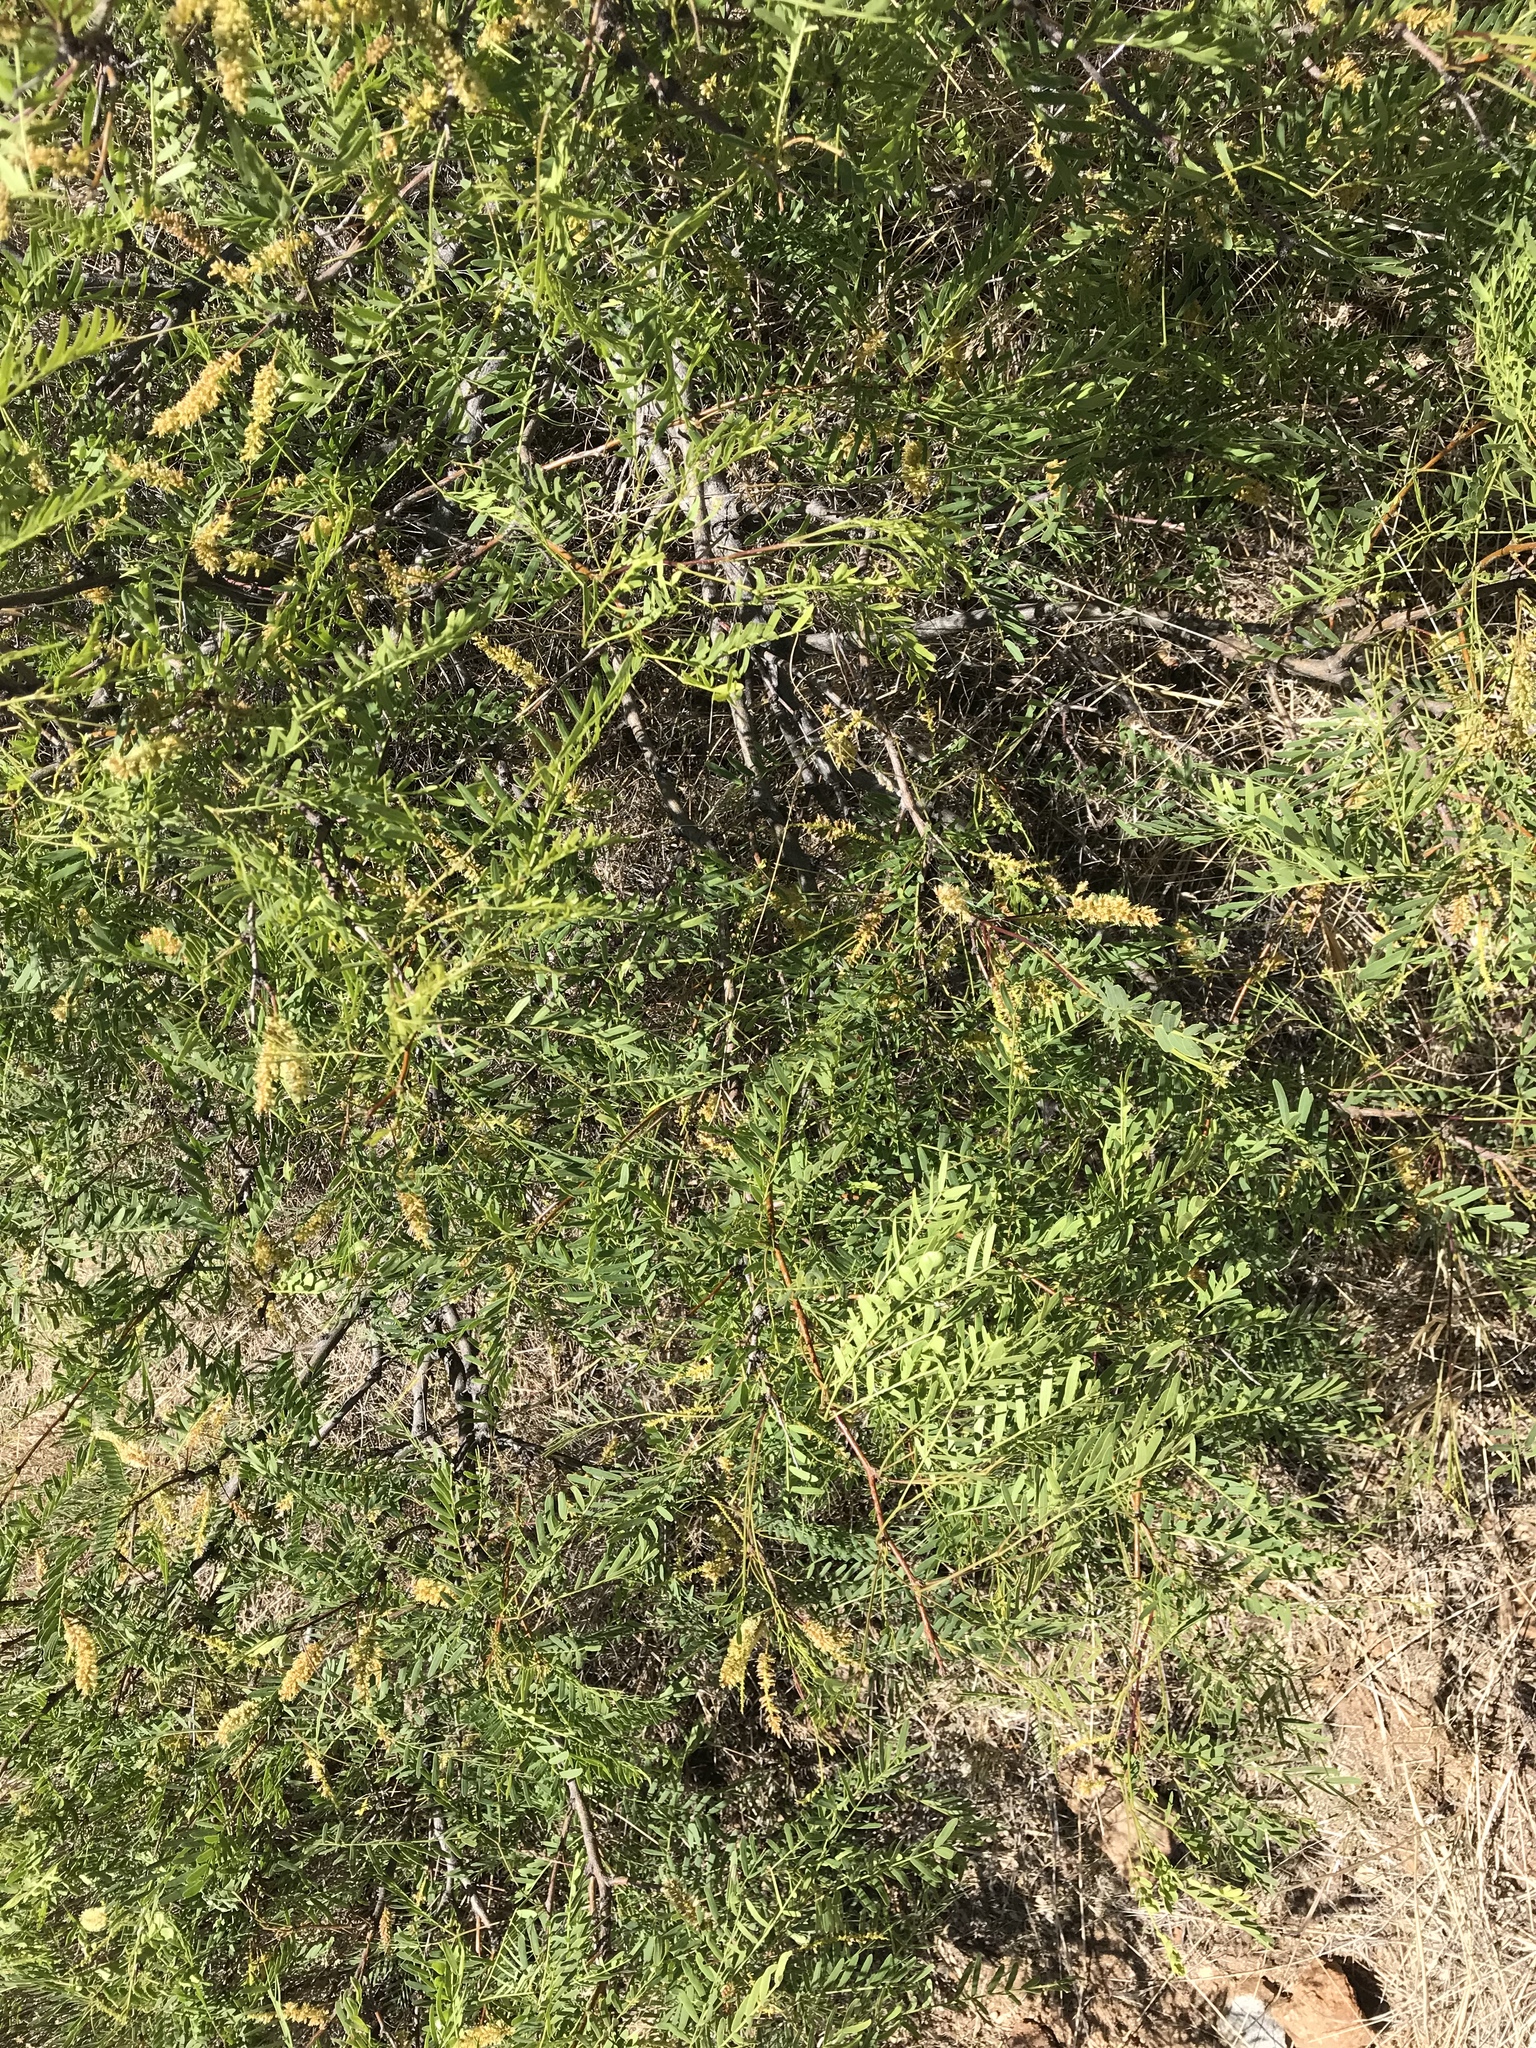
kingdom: Plantae
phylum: Tracheophyta
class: Magnoliopsida
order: Fabales
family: Fabaceae
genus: Prosopis
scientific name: Prosopis glandulosa
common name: Honey mesquite
